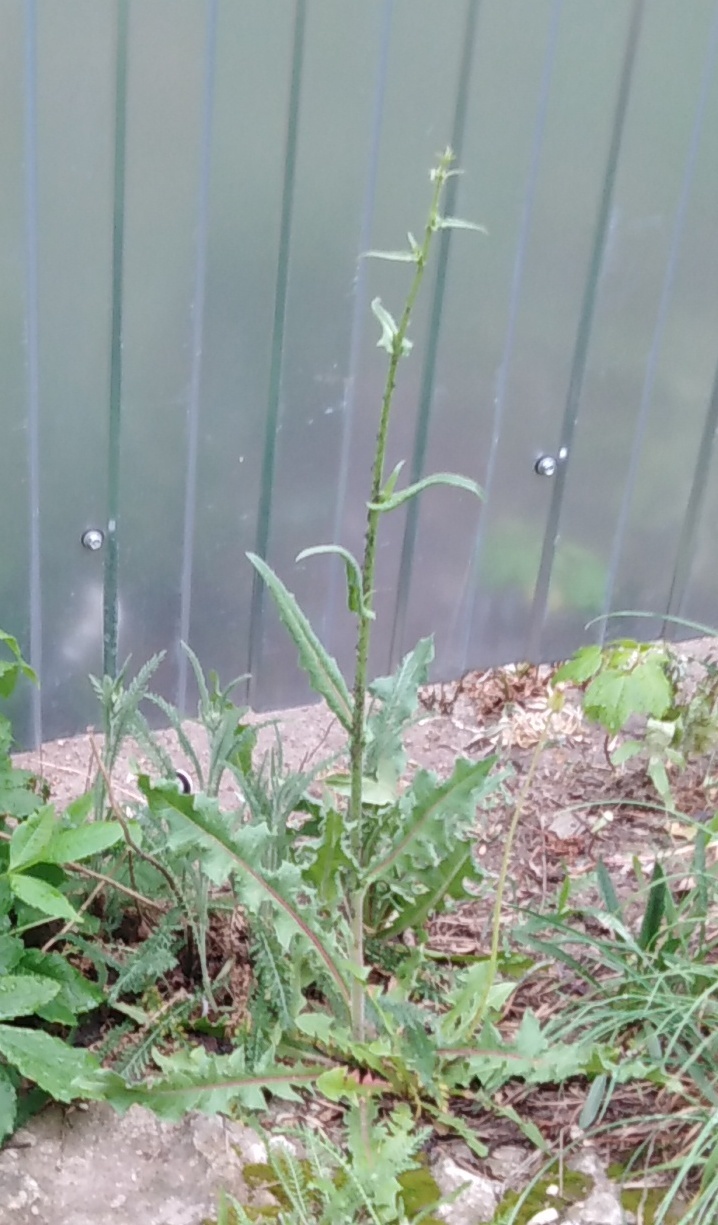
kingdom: Plantae
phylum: Tracheophyta
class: Magnoliopsida
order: Asterales
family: Asteraceae
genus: Cichorium
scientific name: Cichorium intybus
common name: Chicory
